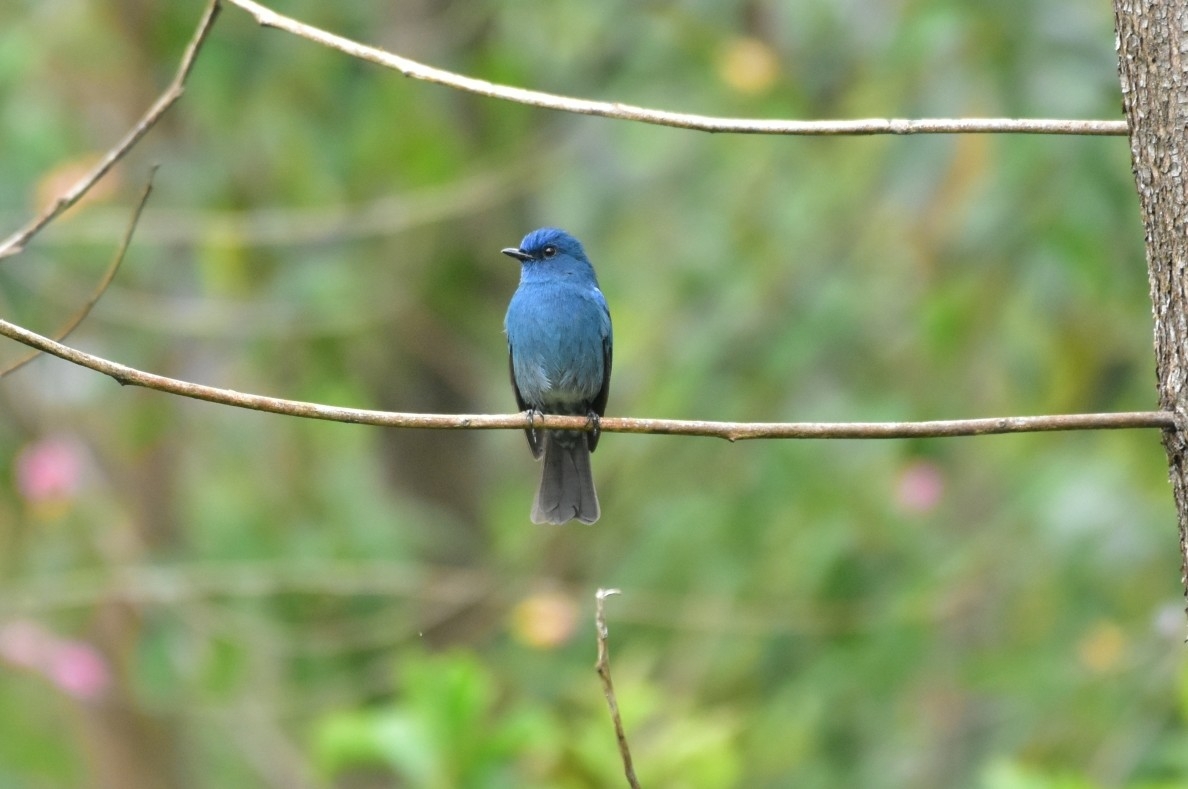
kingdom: Animalia
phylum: Chordata
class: Aves
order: Passeriformes
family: Muscicapidae
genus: Eumyias
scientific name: Eumyias albicaudatus
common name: Nilgiri flycatcher
